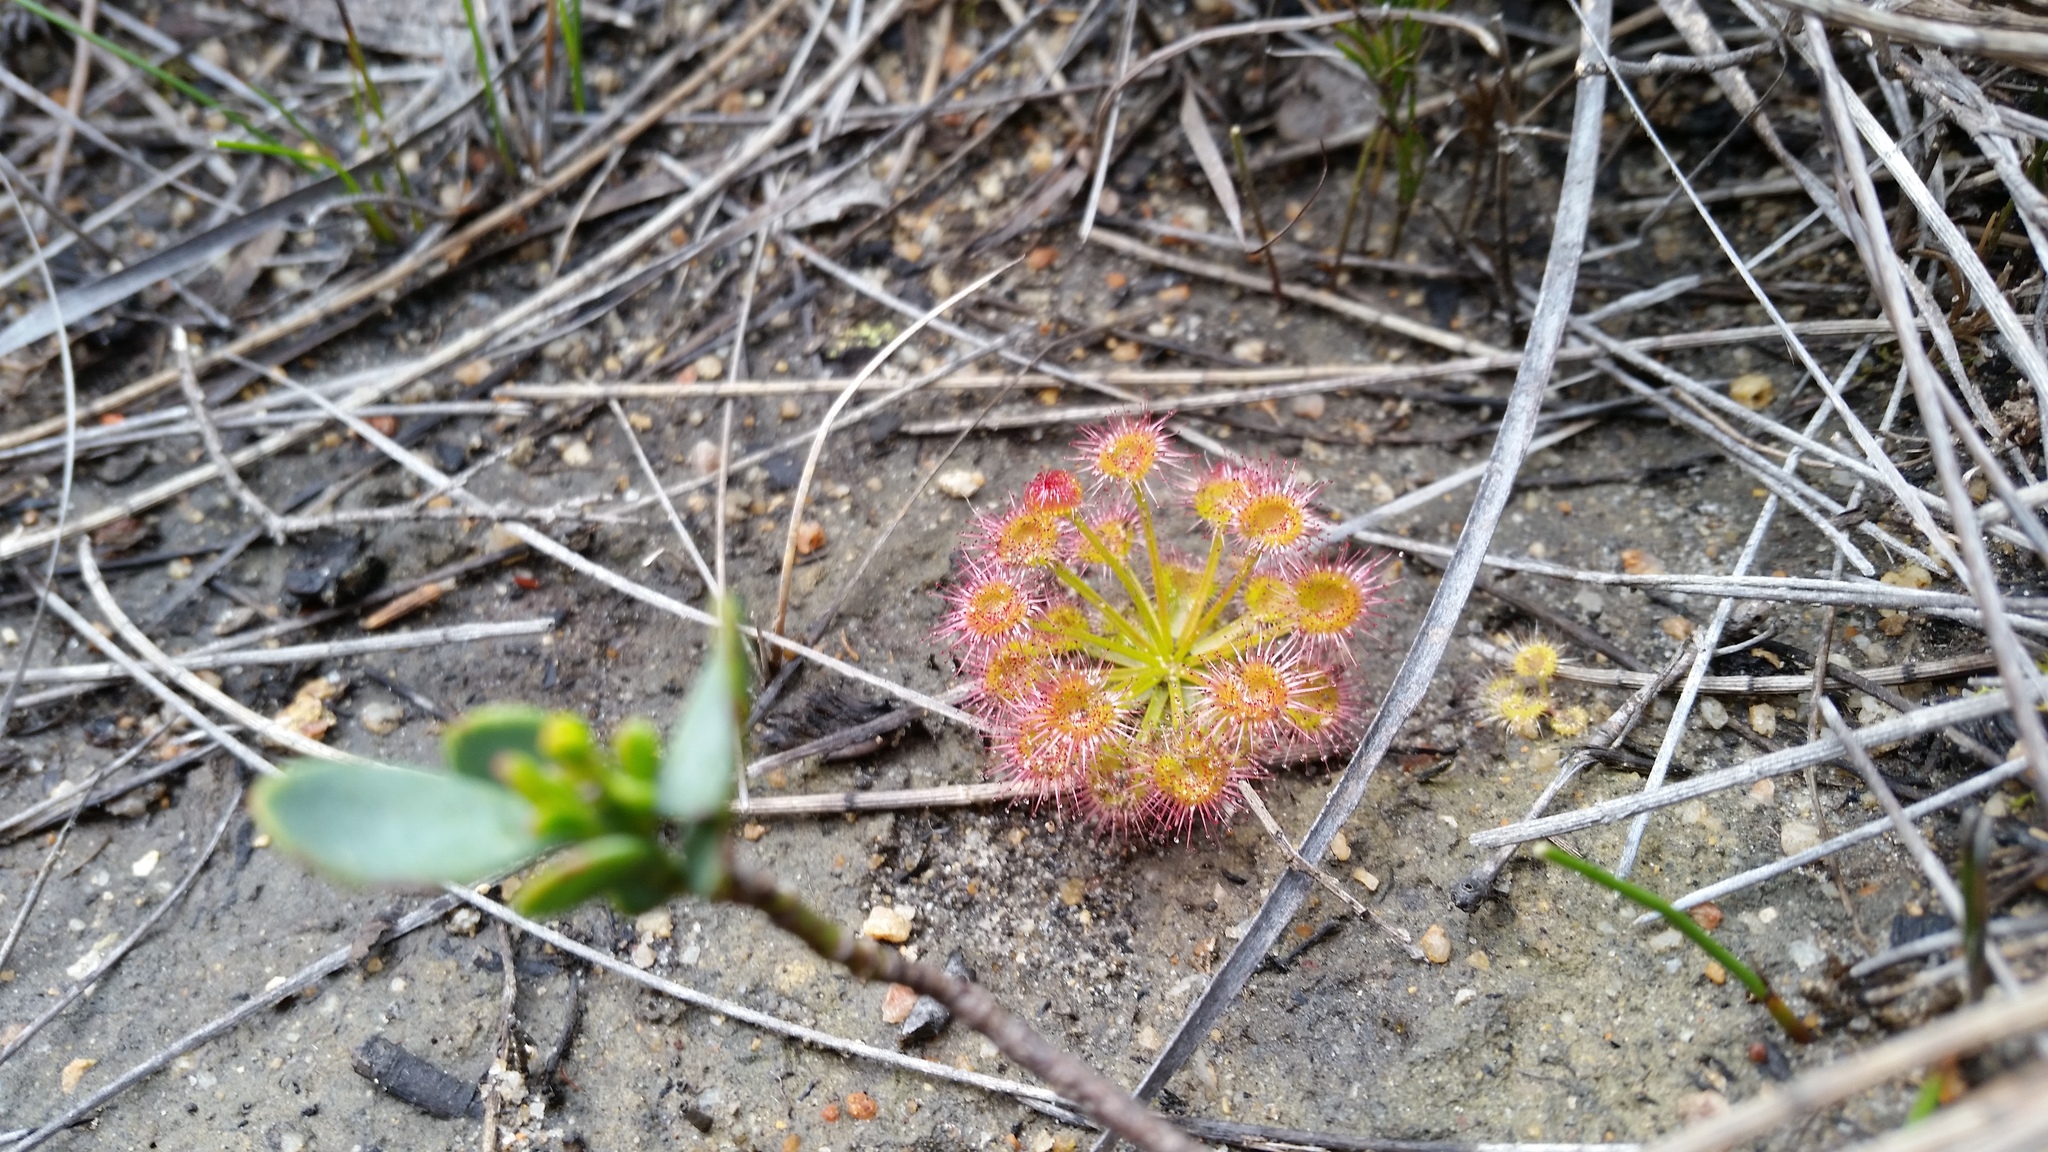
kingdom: Plantae
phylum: Tracheophyta
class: Magnoliopsida
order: Caryophyllales
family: Droseraceae
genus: Drosera
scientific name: Drosera stolonifera
